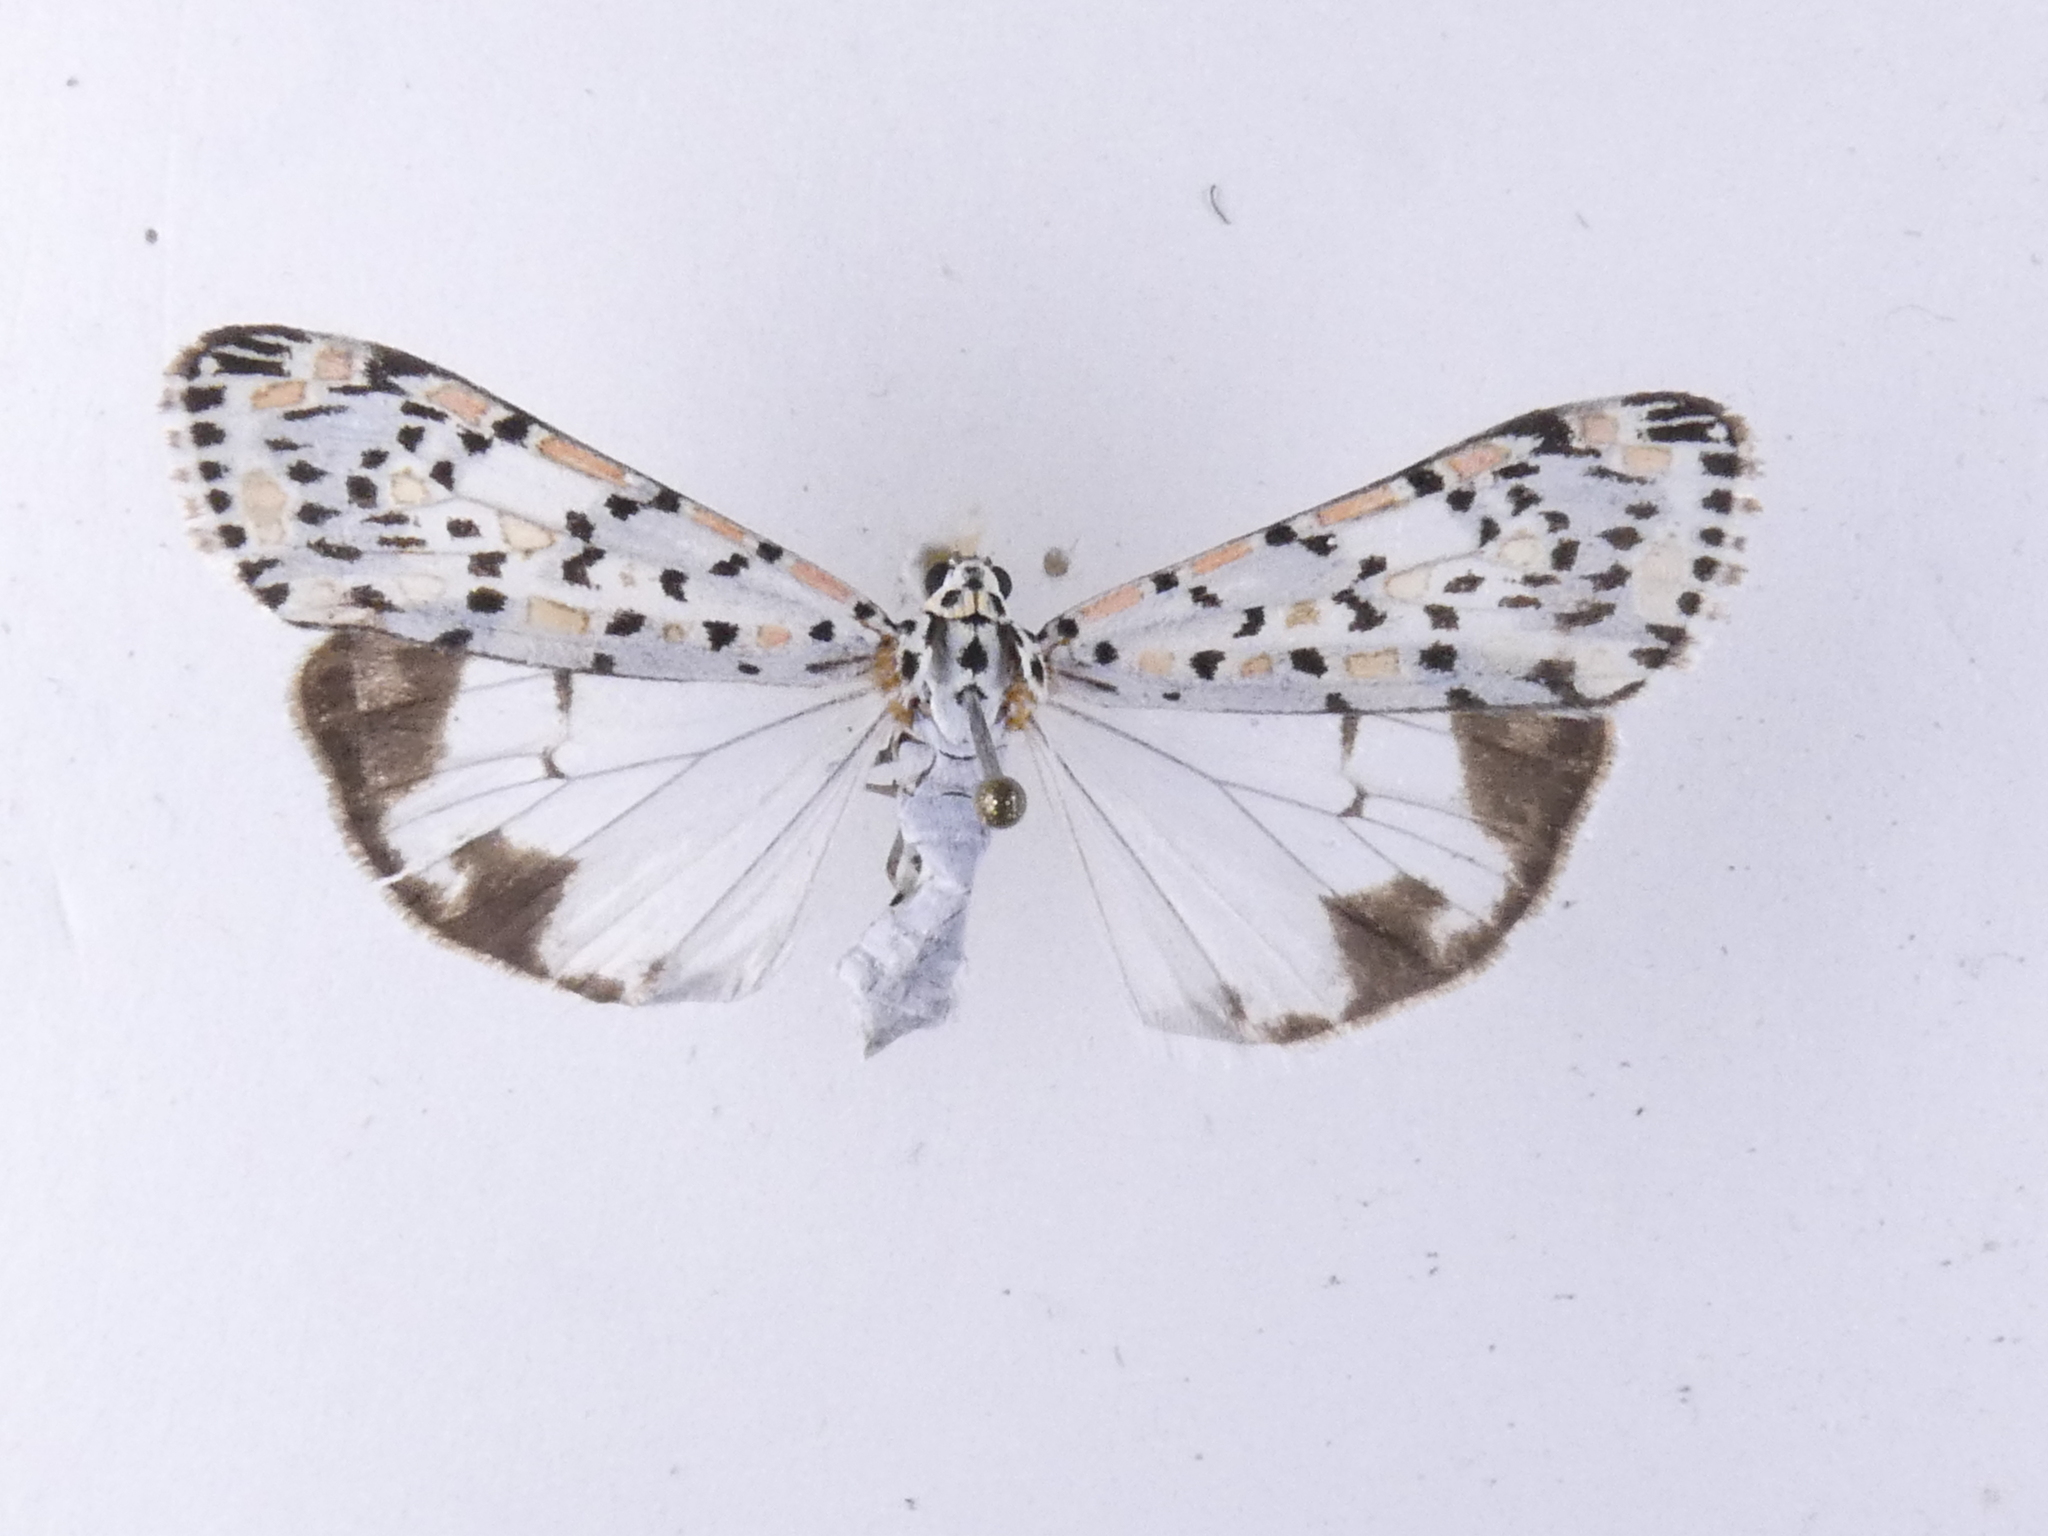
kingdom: Animalia
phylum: Arthropoda
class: Insecta
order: Lepidoptera
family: Erebidae
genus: Utetheisa
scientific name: Utetheisa pulchelloides
